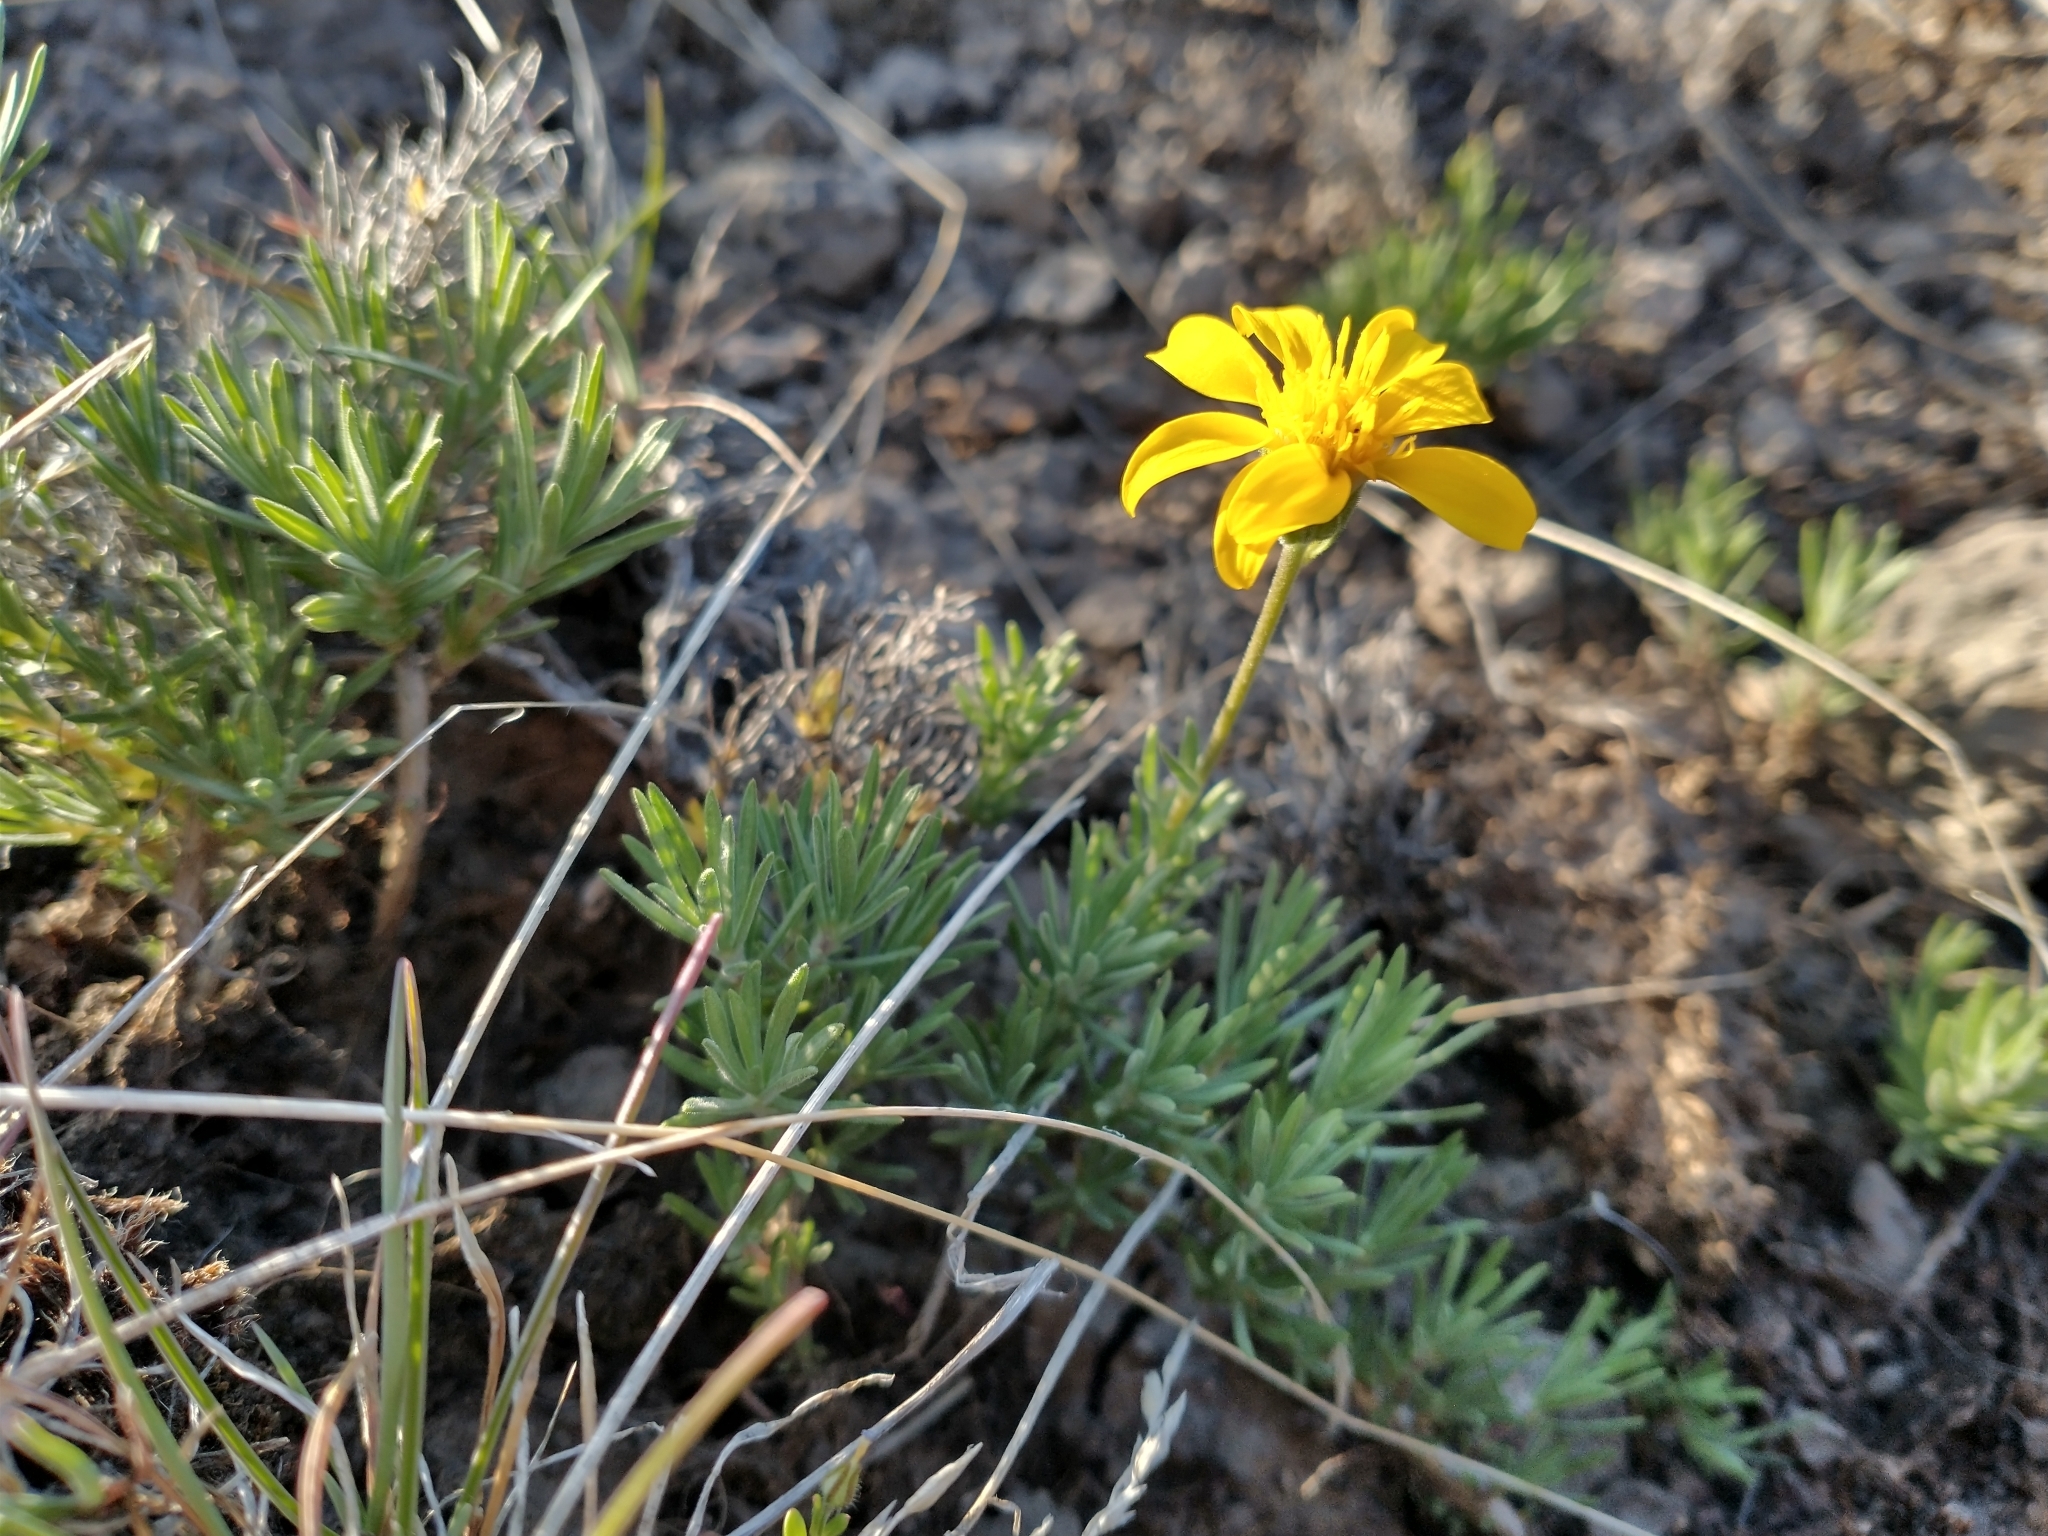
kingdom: Plantae
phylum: Tracheophyta
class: Magnoliopsida
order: Asterales
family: Asteraceae
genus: Nestotus
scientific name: Nestotus stenophyllus
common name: Narrow-leaf mock goldenweed
